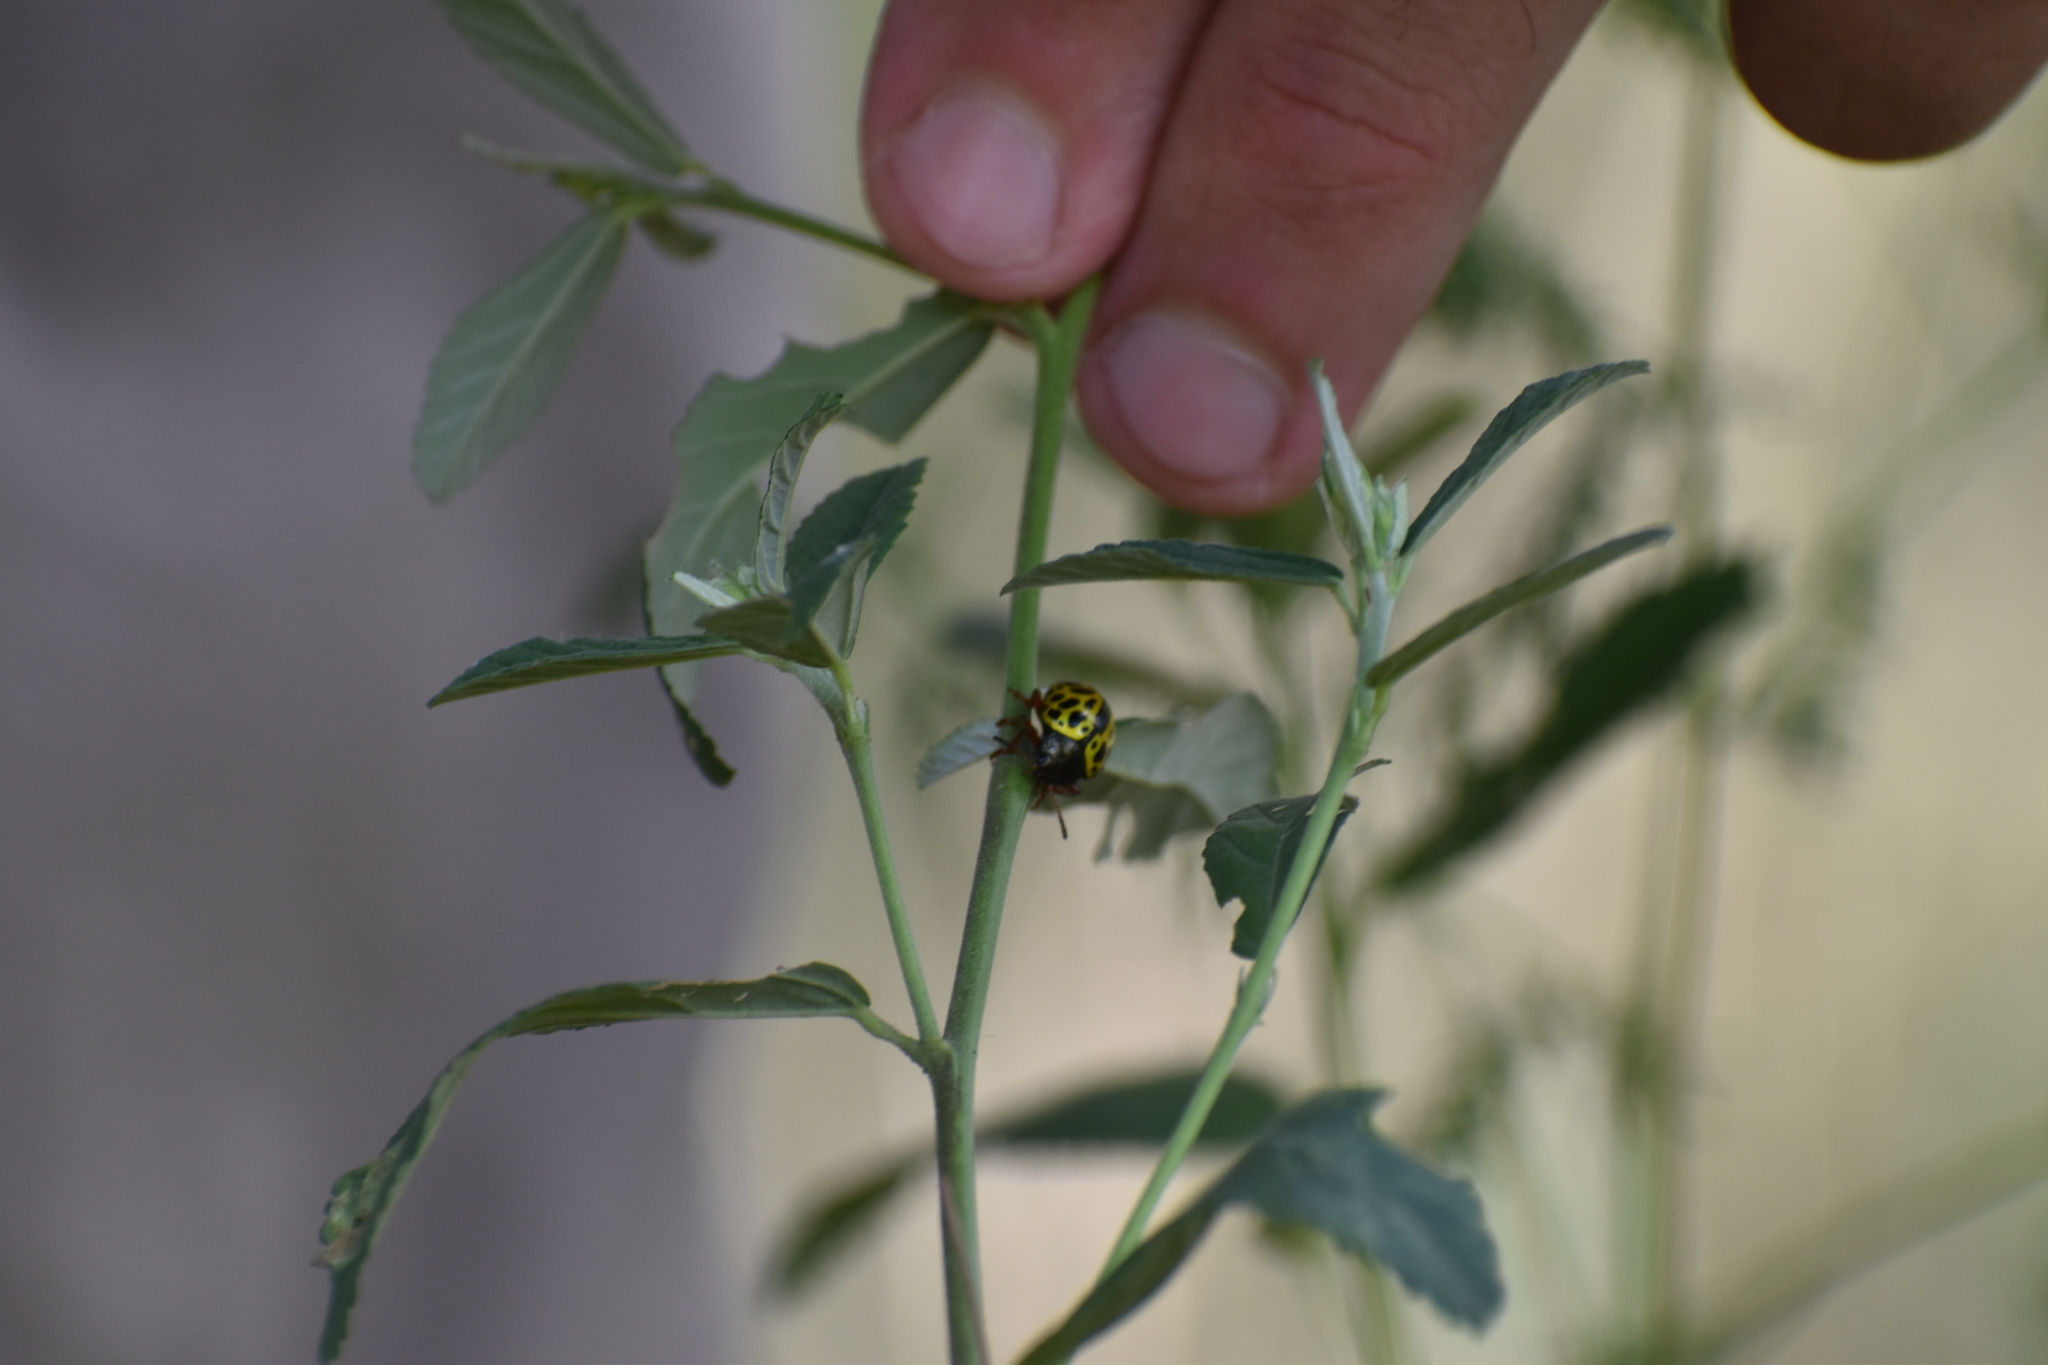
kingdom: Animalia
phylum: Arthropoda
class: Insecta
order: Coleoptera
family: Chrysomelidae
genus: Calligrapha
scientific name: Calligrapha polyspila
